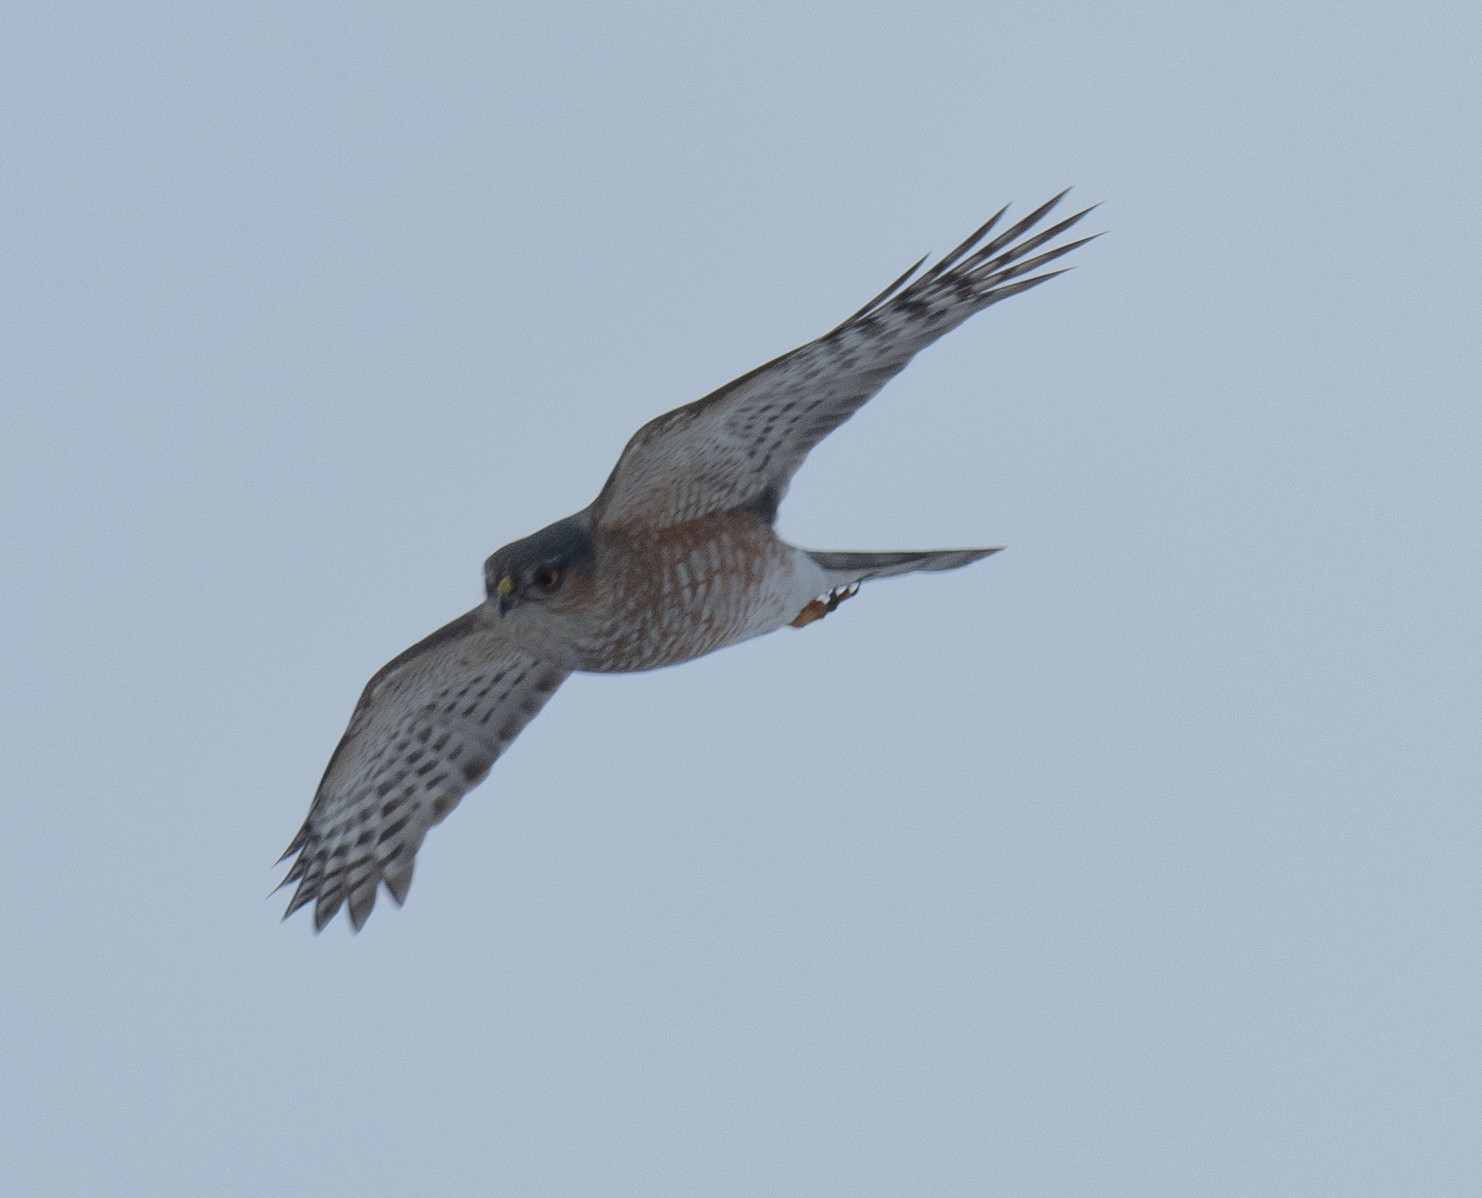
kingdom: Animalia
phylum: Chordata
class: Aves
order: Accipitriformes
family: Accipitridae
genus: Accipiter
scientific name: Accipiter striatus
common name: Sharp-shinned hawk
